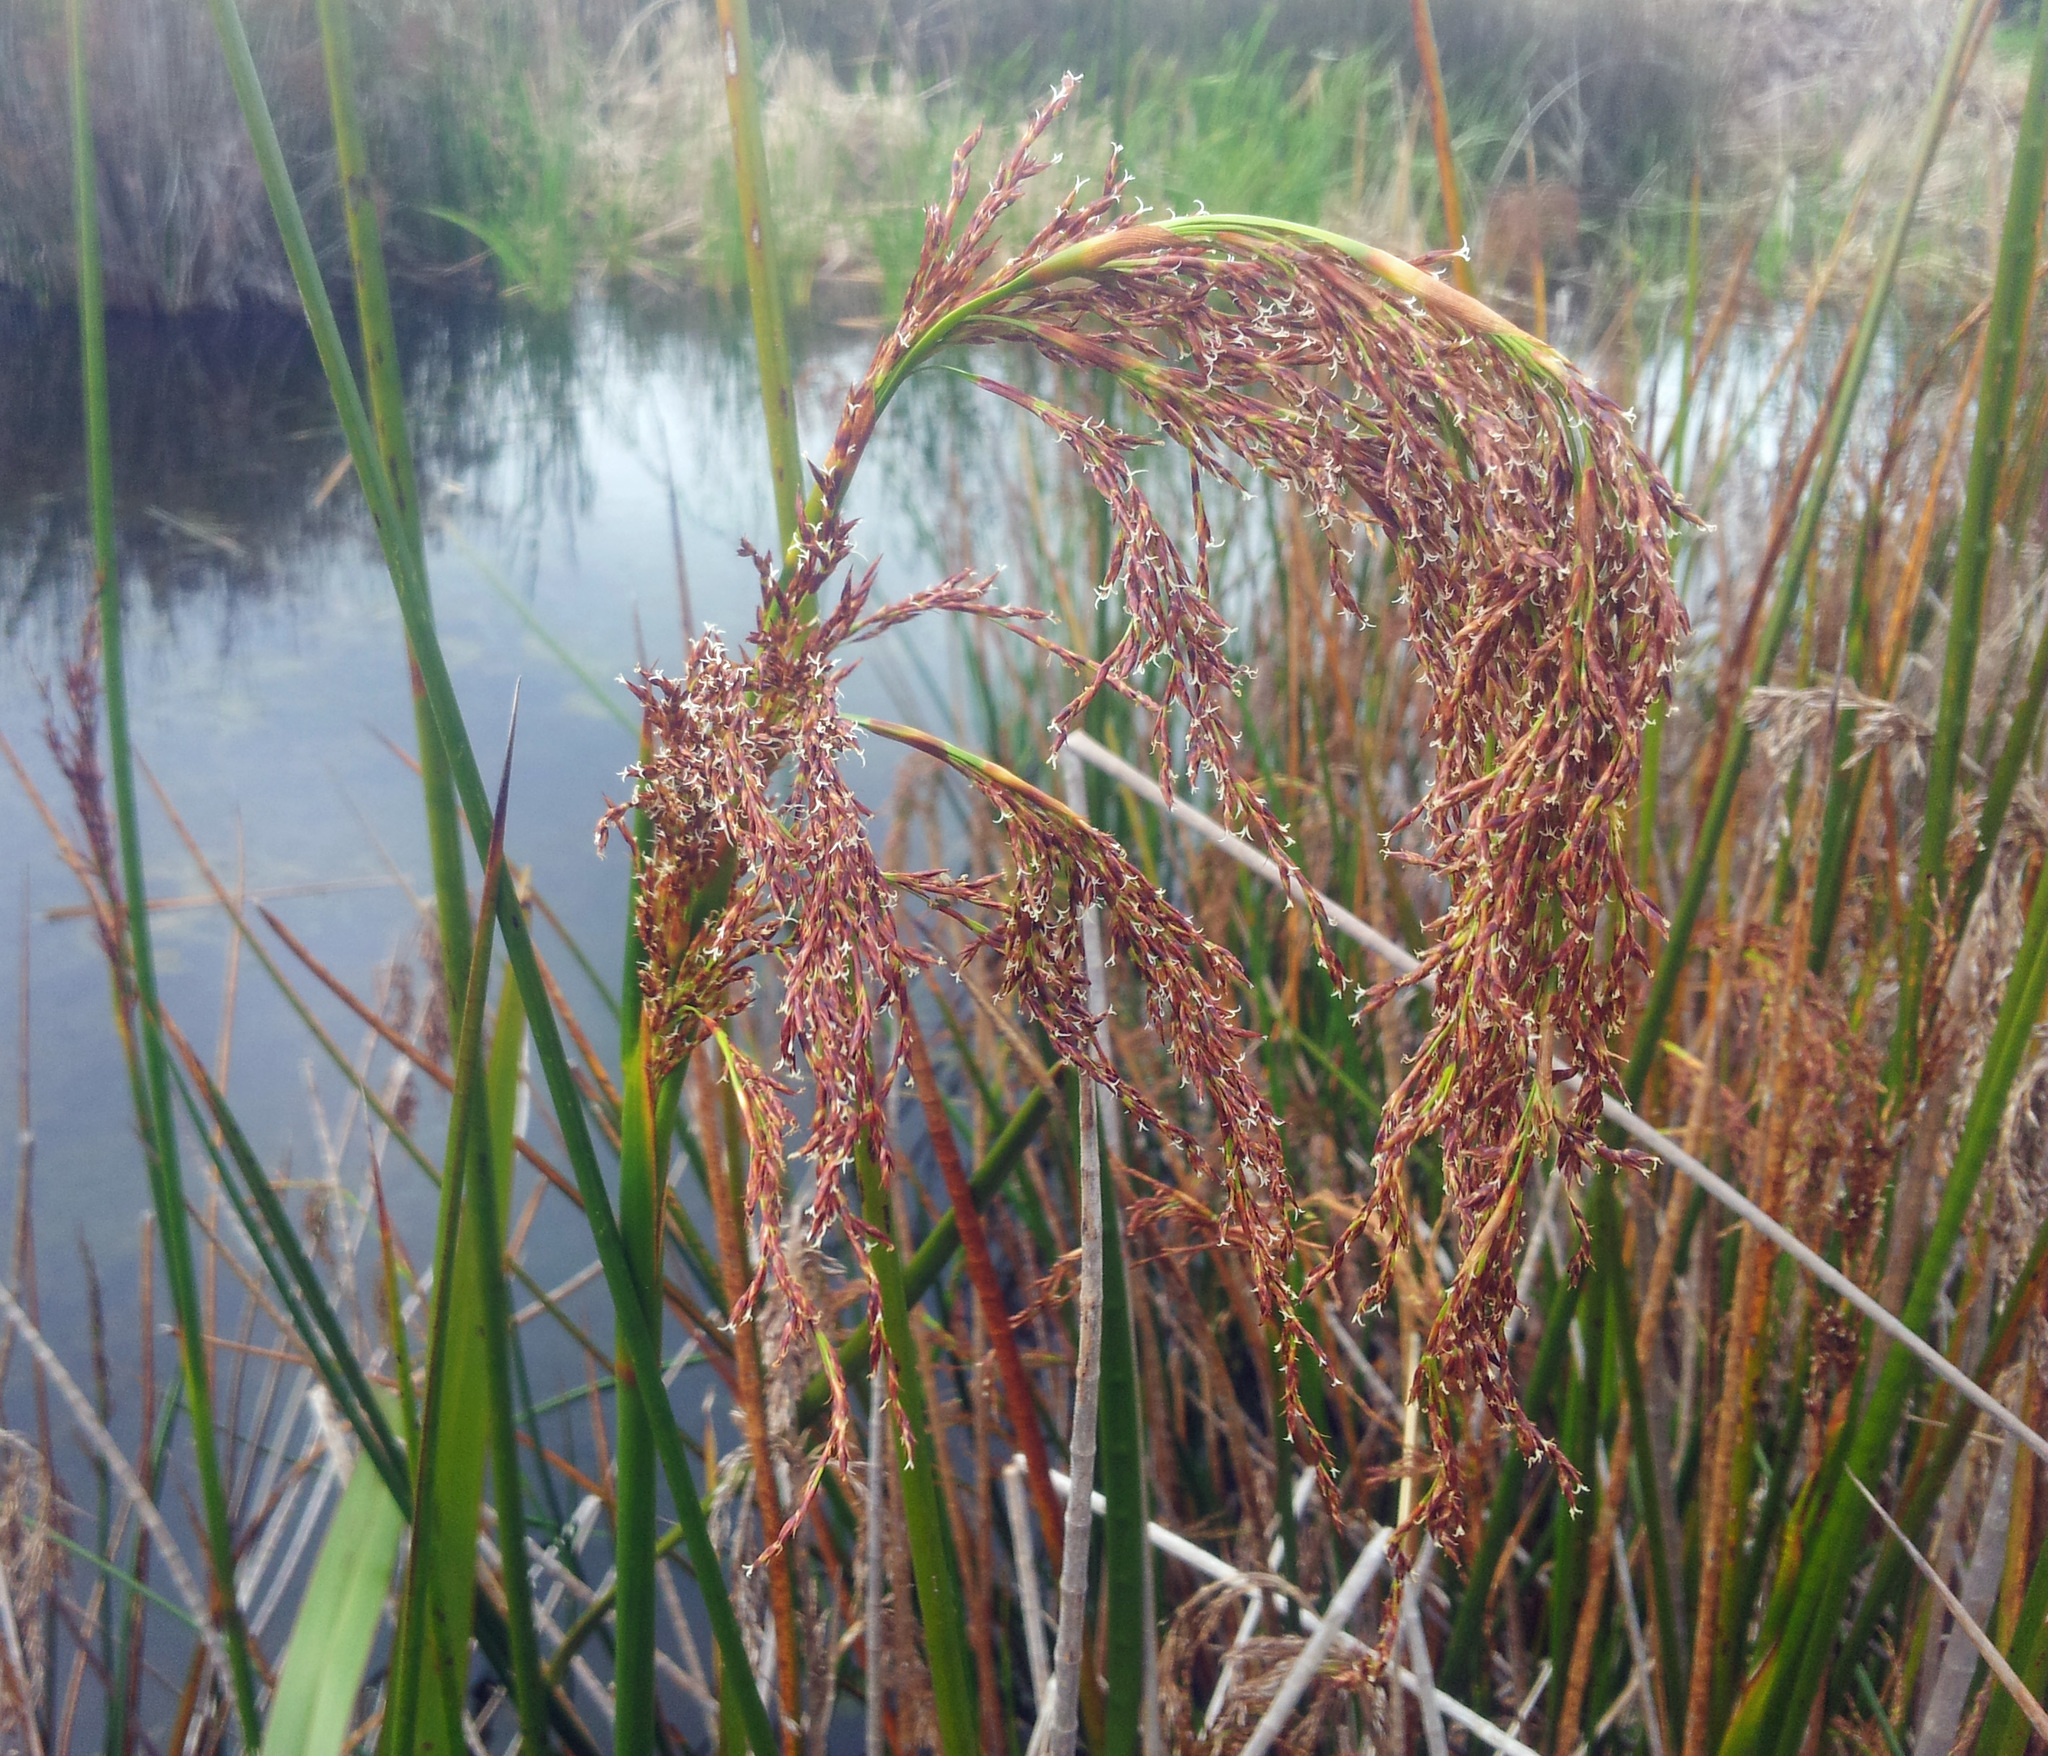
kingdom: Plantae
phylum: Tracheophyta
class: Liliopsida
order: Poales
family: Cyperaceae
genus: Machaerina
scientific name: Machaerina articulata
